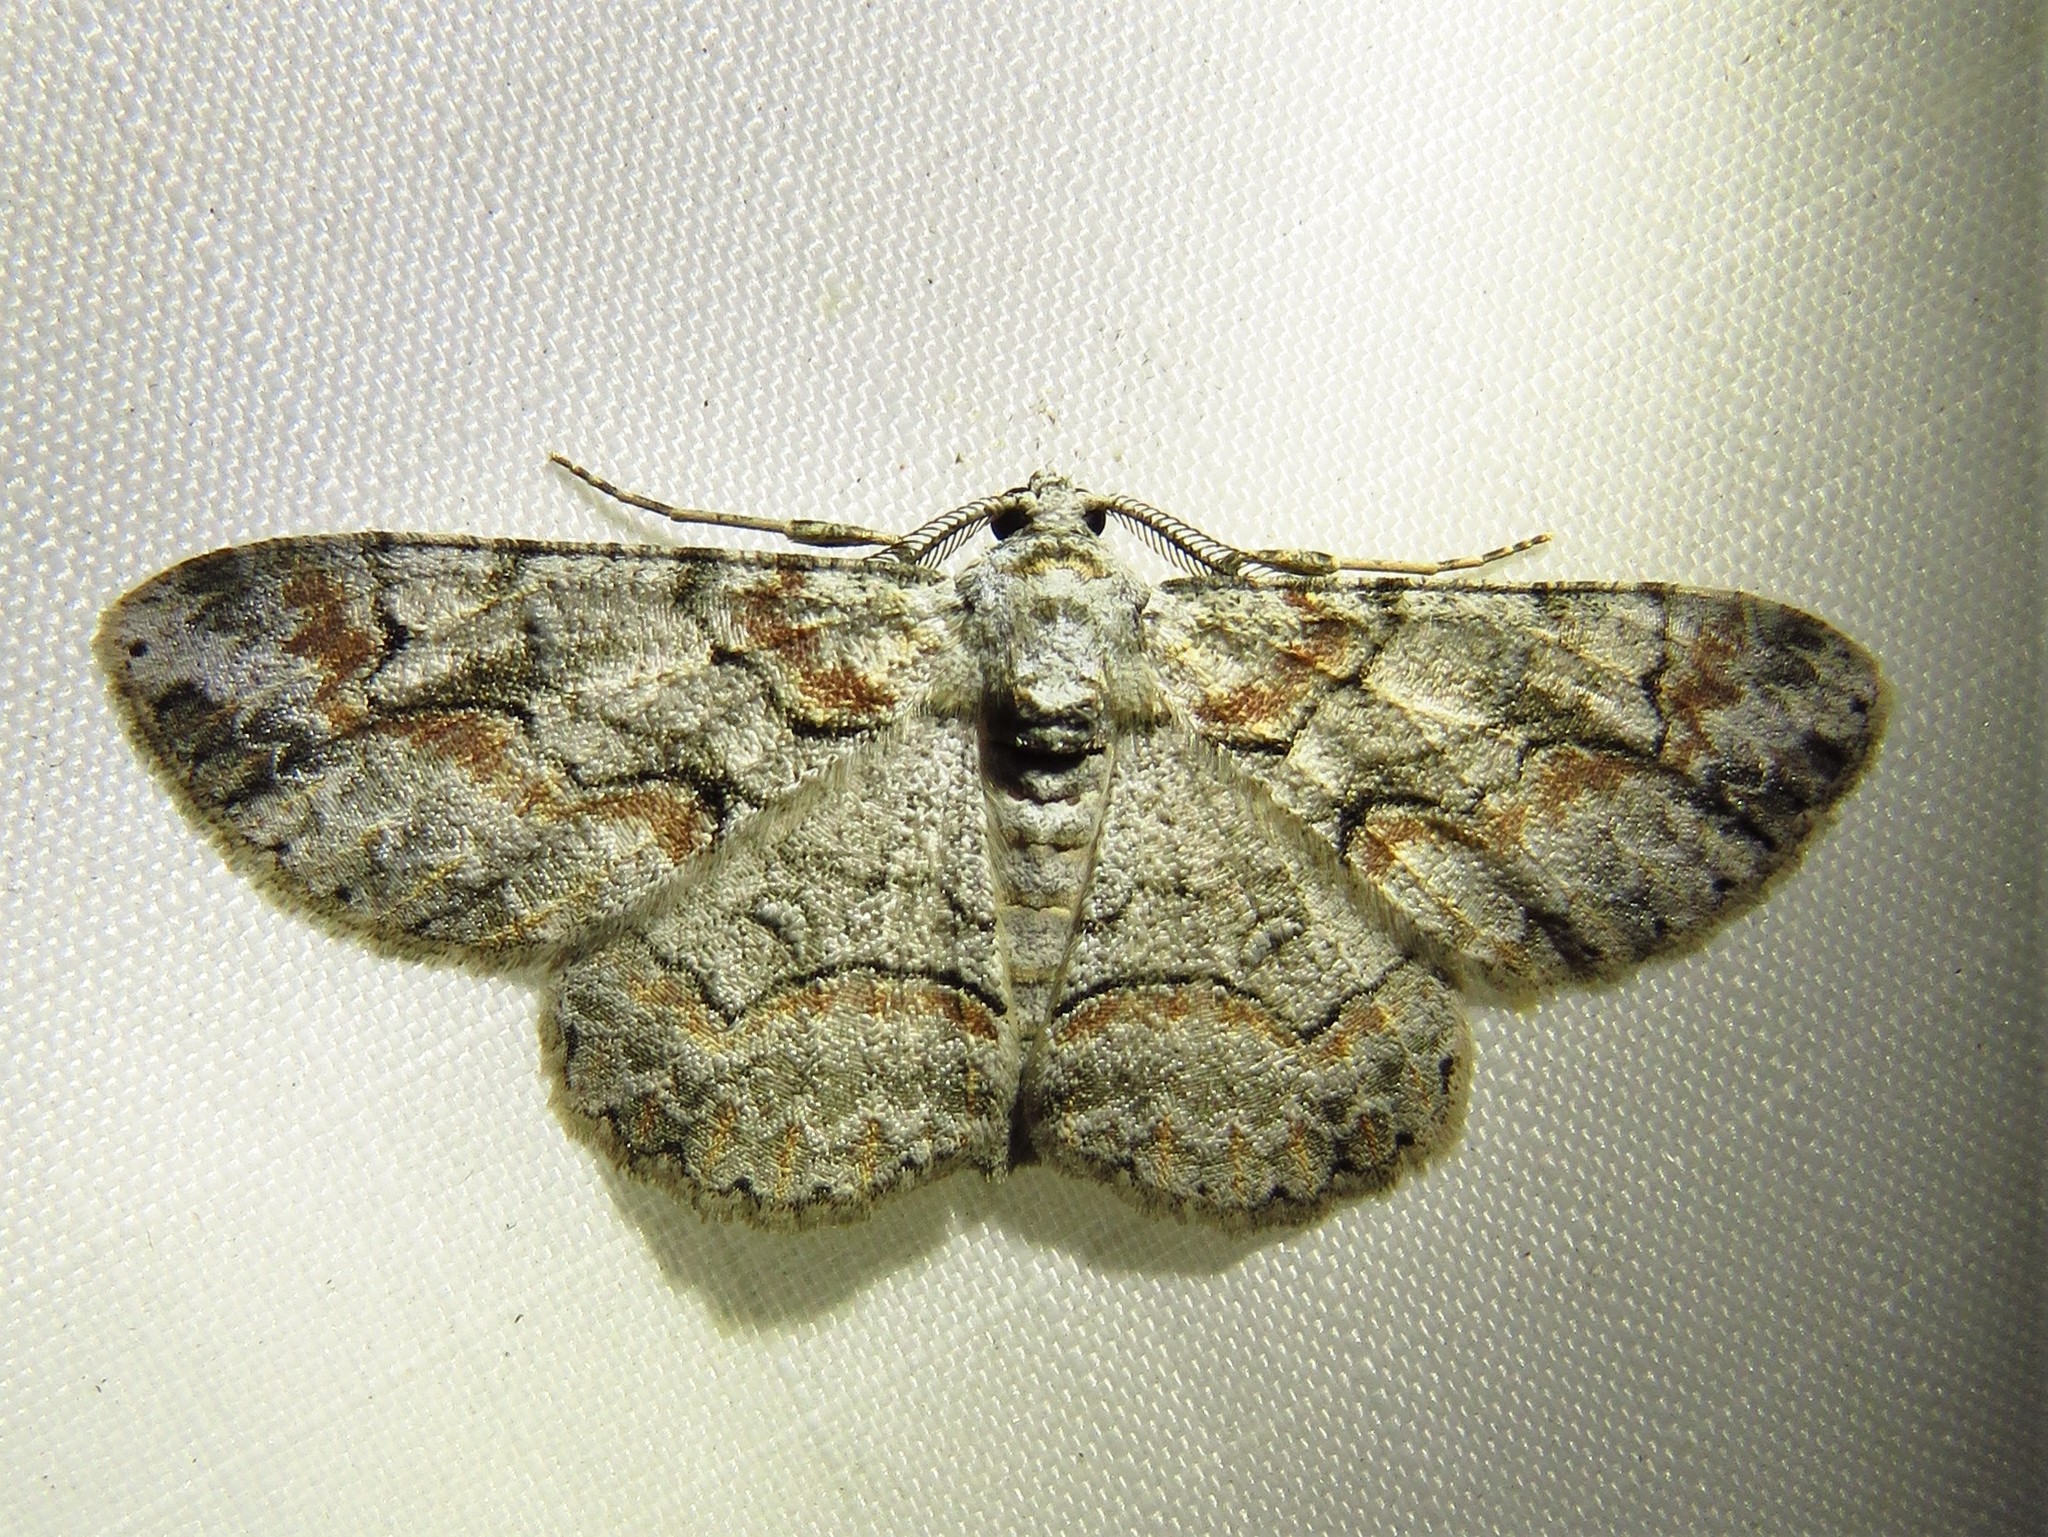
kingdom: Animalia
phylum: Arthropoda
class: Insecta
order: Lepidoptera
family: Geometridae
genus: Iridopsis
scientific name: Iridopsis defectaria
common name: Brown-shaded gray
